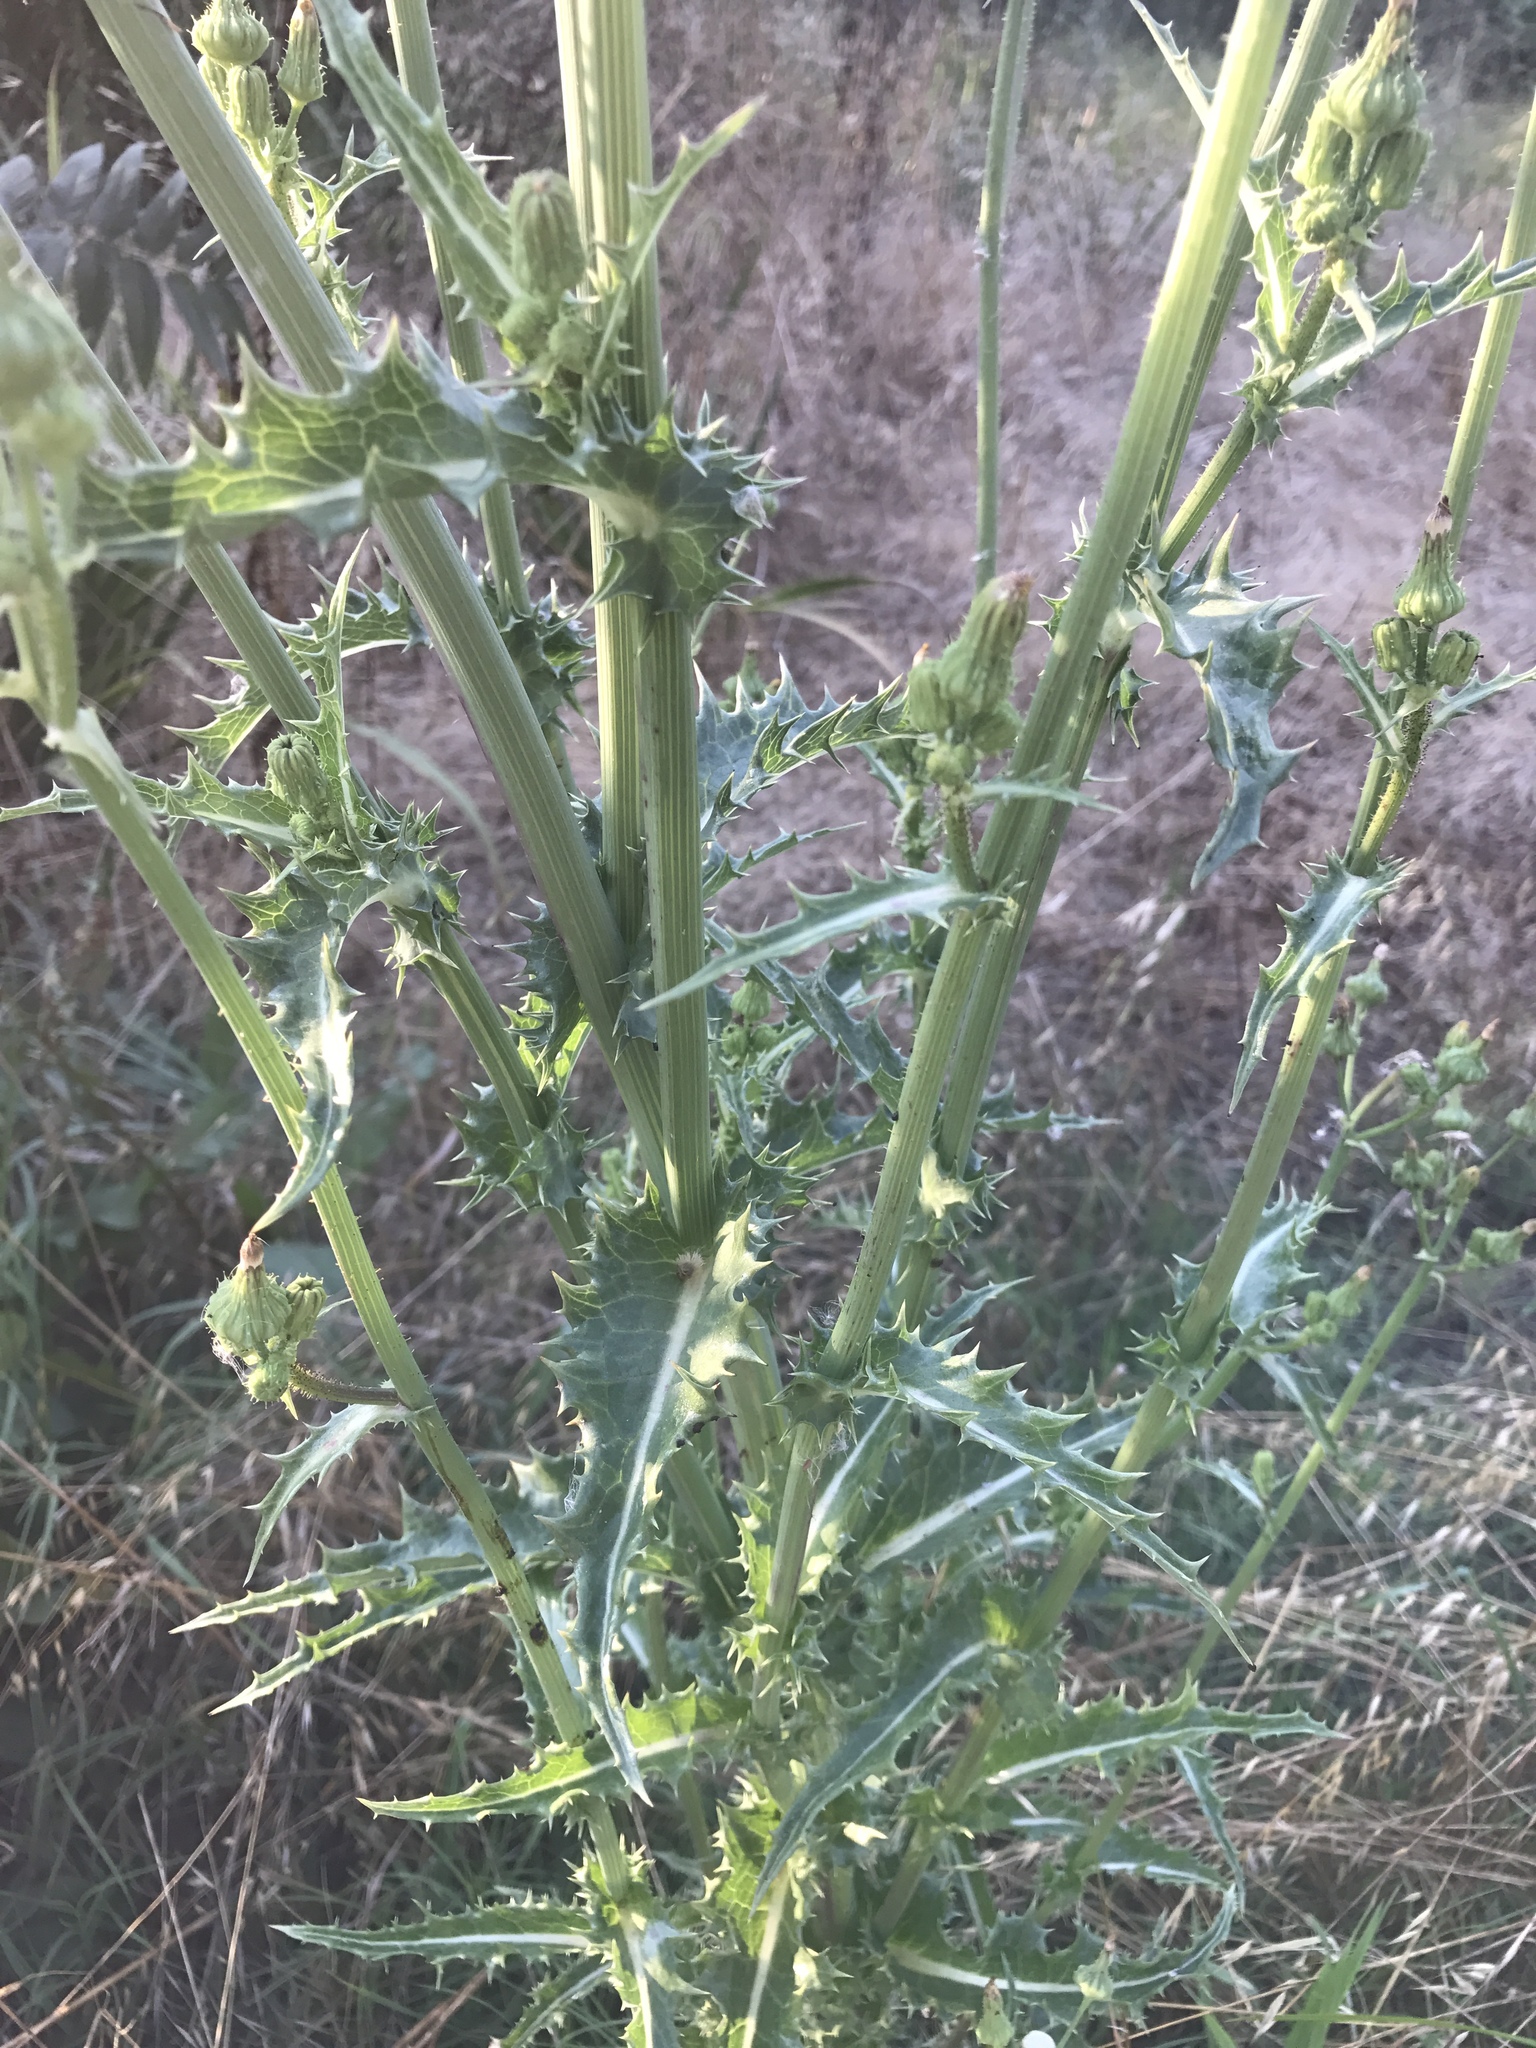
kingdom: Plantae
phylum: Tracheophyta
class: Magnoliopsida
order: Asterales
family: Asteraceae
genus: Silybum
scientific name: Silybum marianum
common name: Milk thistle
